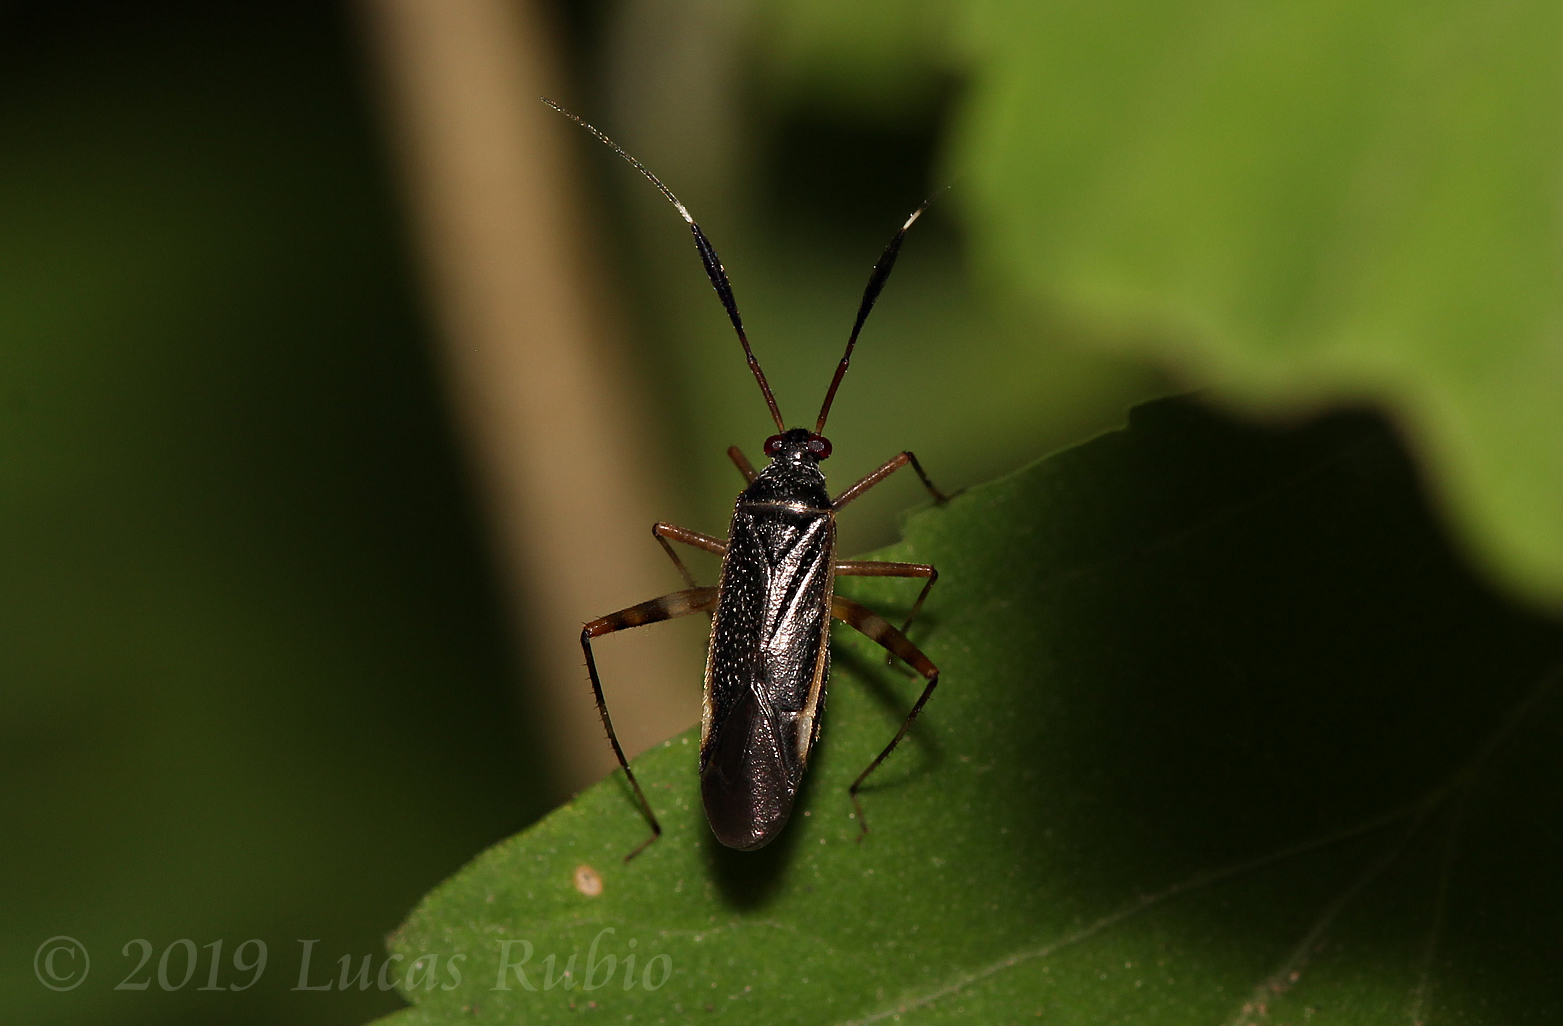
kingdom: Animalia
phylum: Arthropoda
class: Insecta
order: Hemiptera
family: Miridae
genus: Garganus
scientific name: Garganus gracilentus
